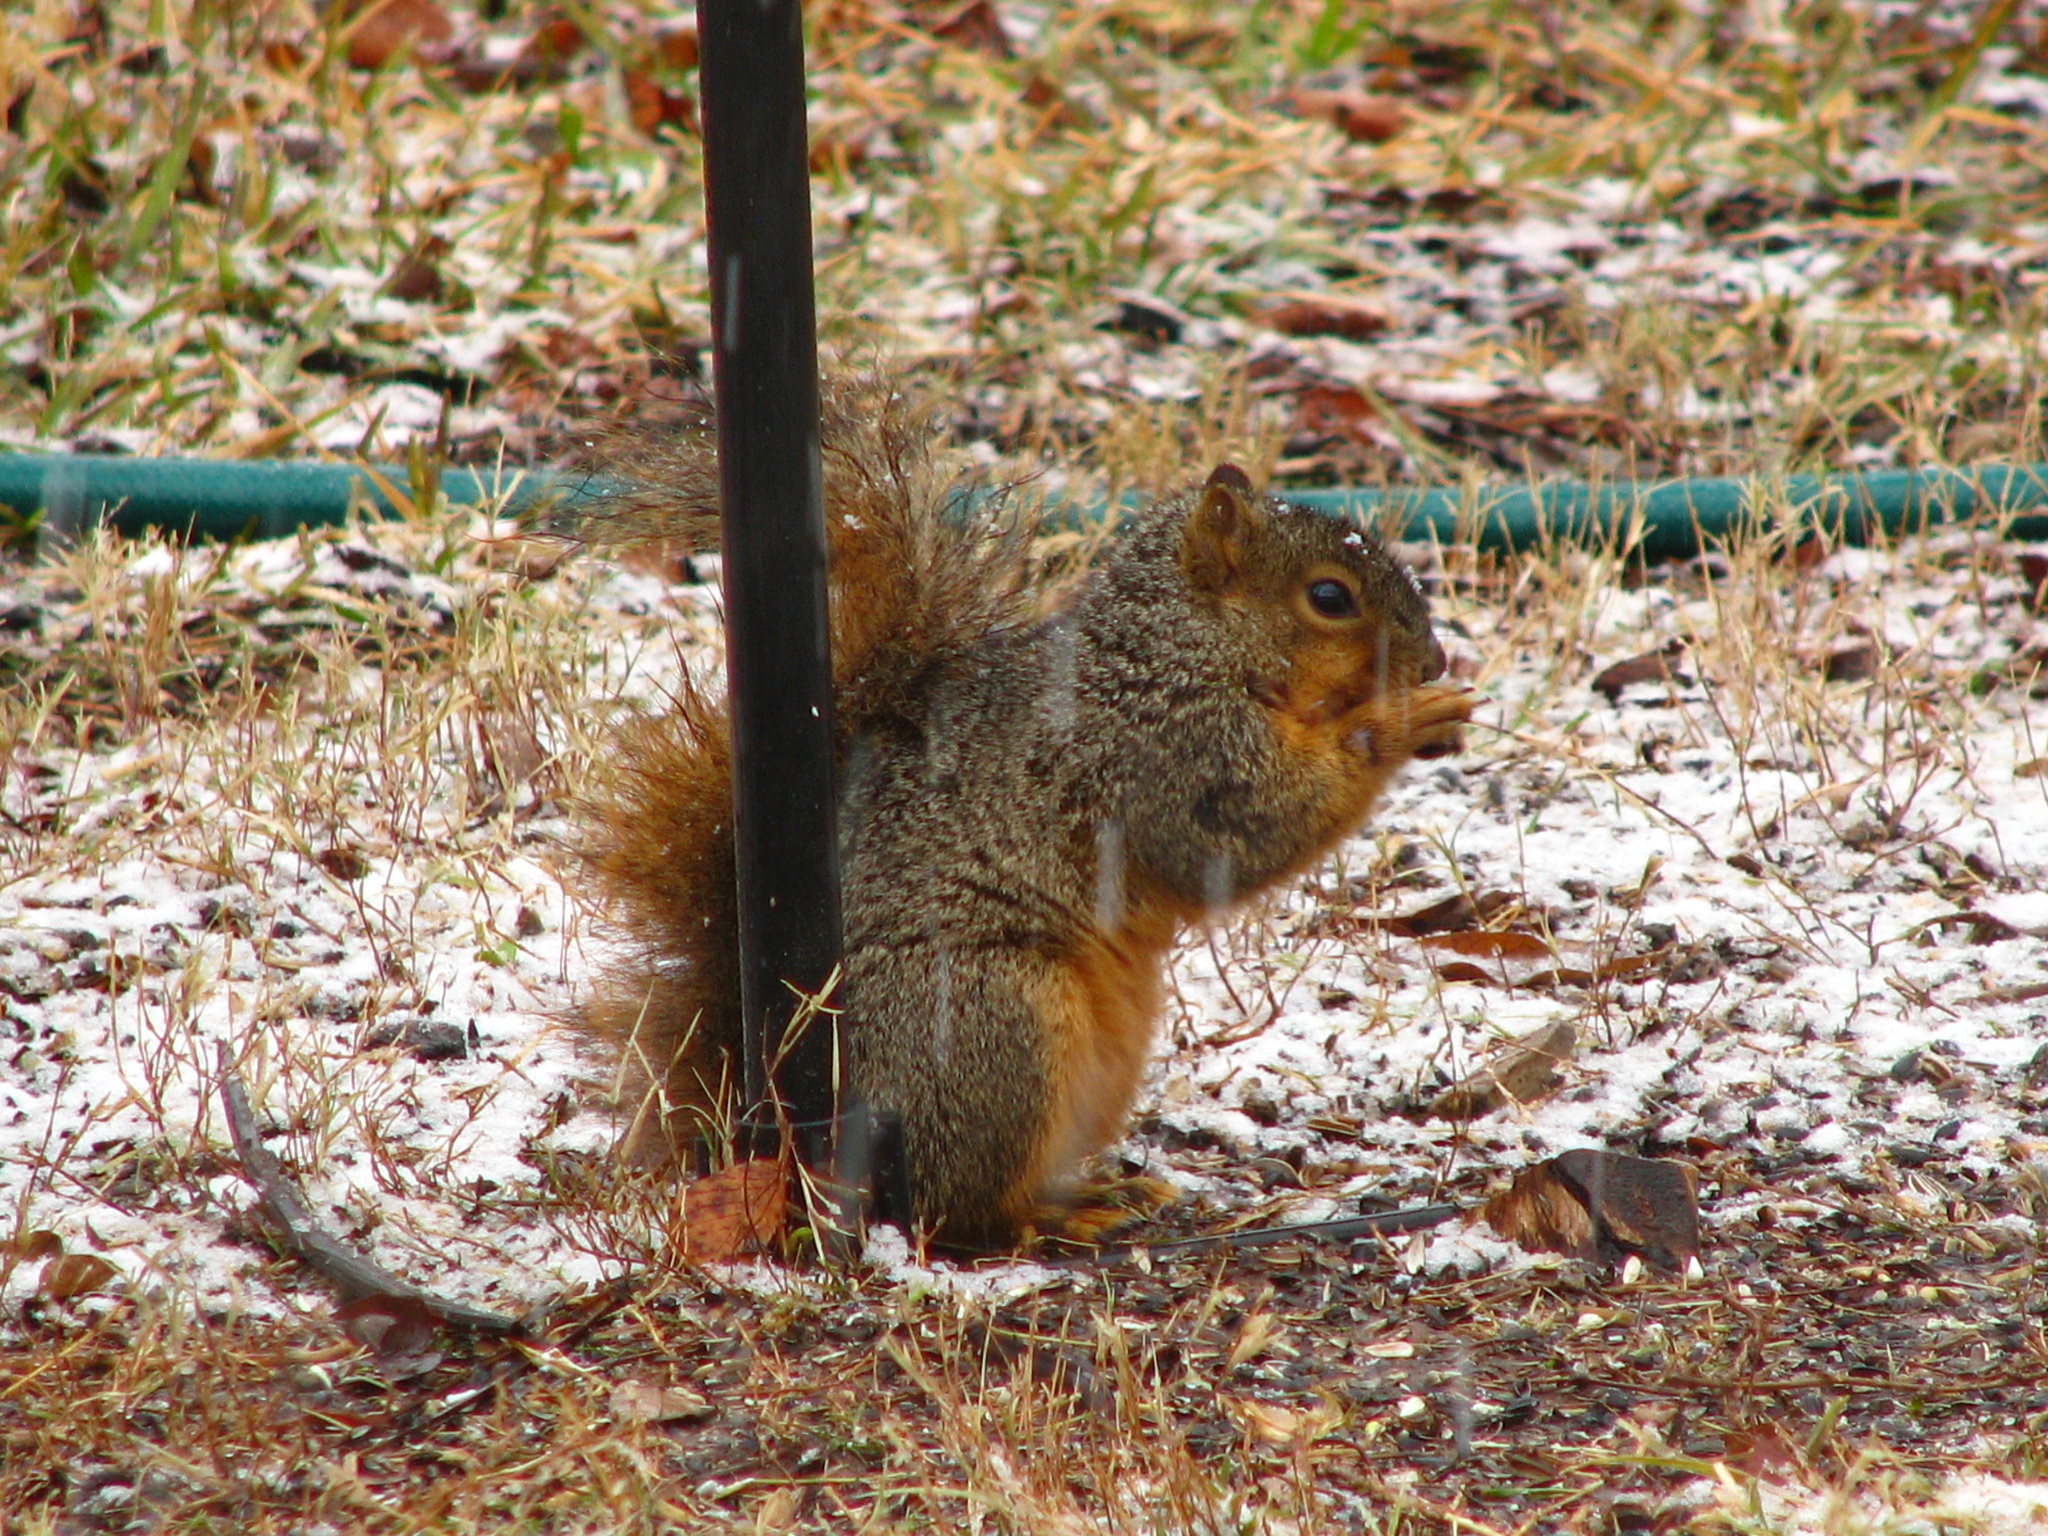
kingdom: Animalia
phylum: Chordata
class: Mammalia
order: Rodentia
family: Sciuridae
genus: Sciurus
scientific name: Sciurus niger
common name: Fox squirrel
